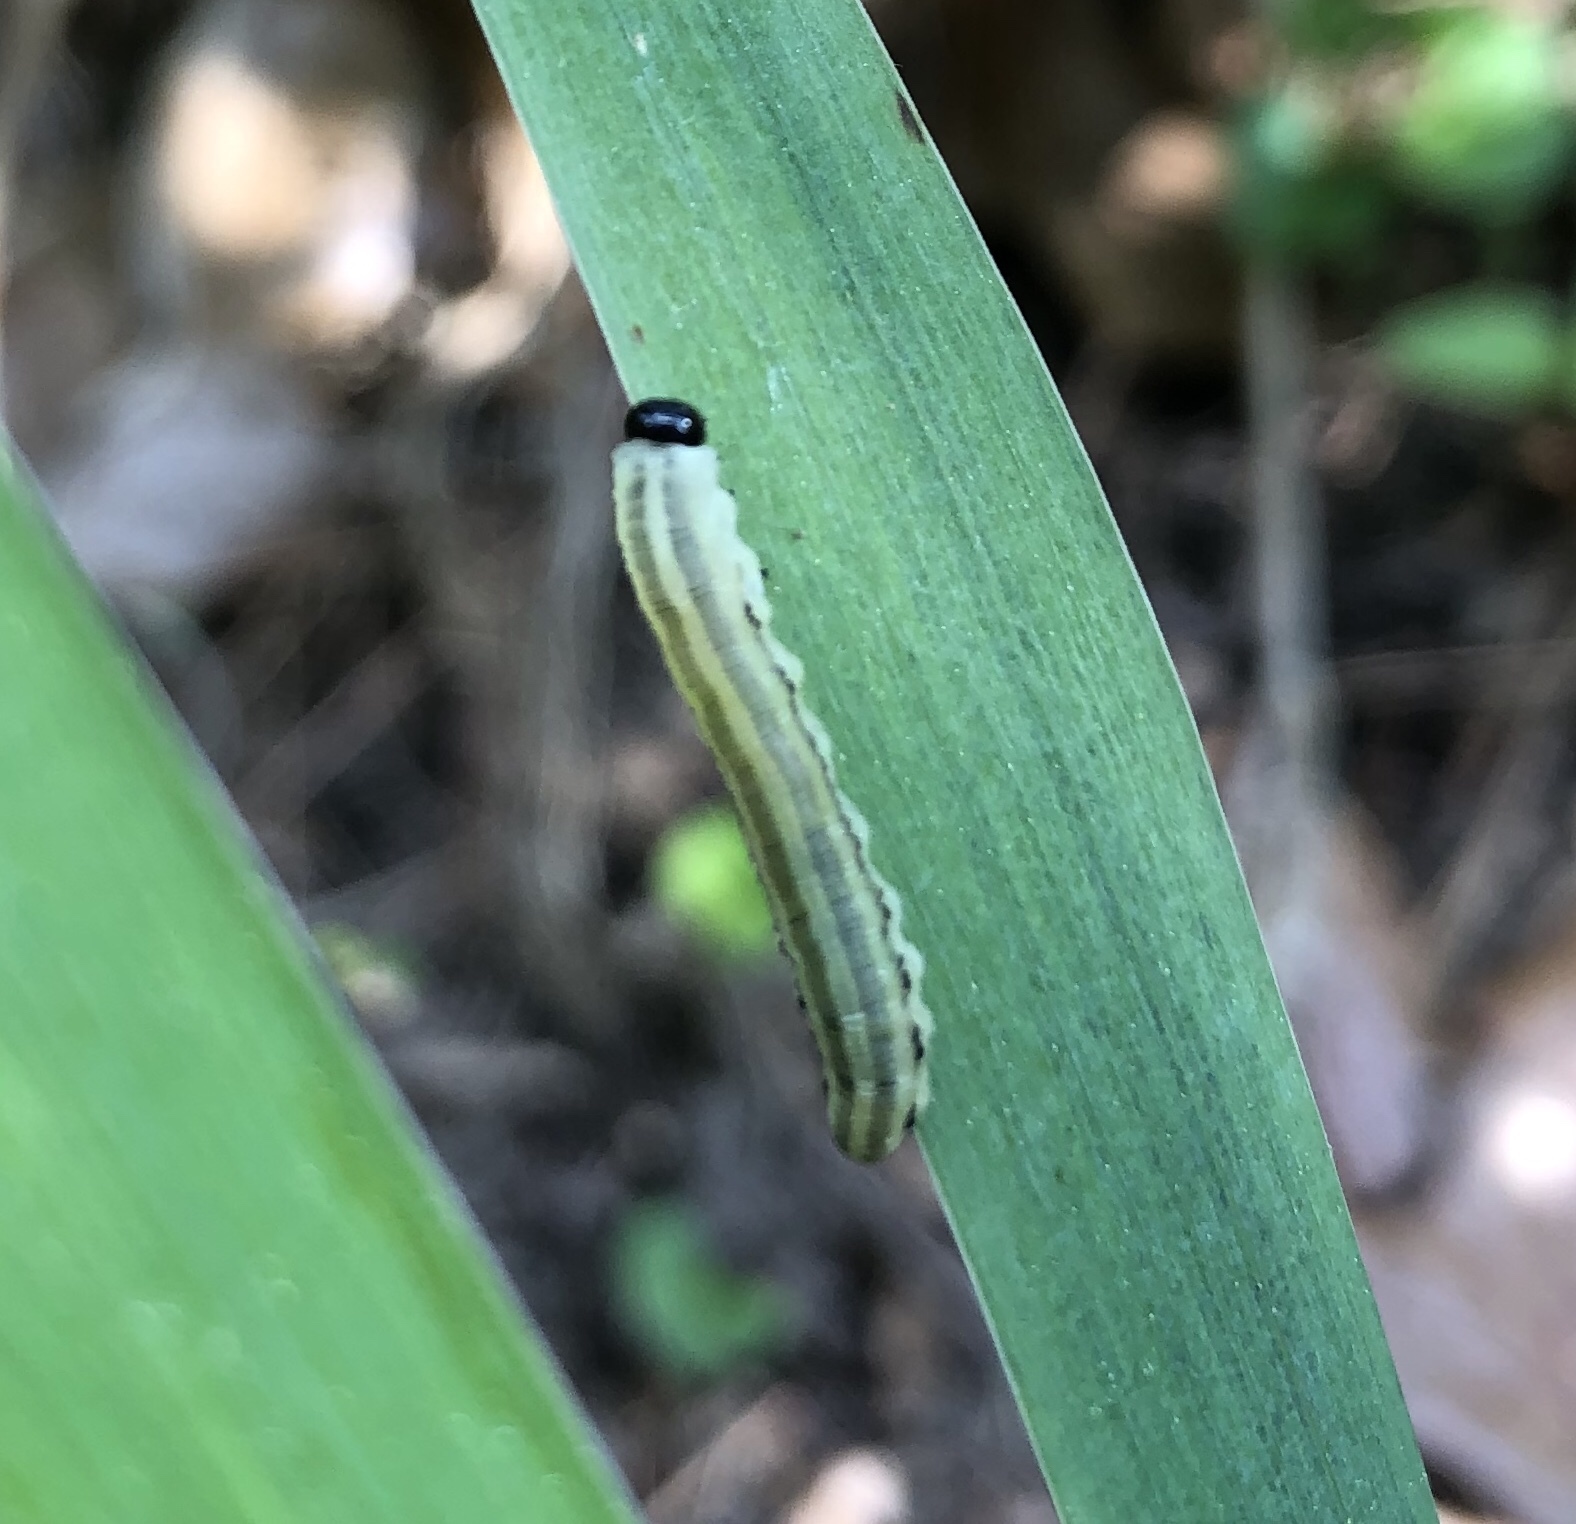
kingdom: Animalia
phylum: Arthropoda
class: Insecta
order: Hymenoptera
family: Diprionidae
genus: Neodiprion
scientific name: Neodiprion excitans
